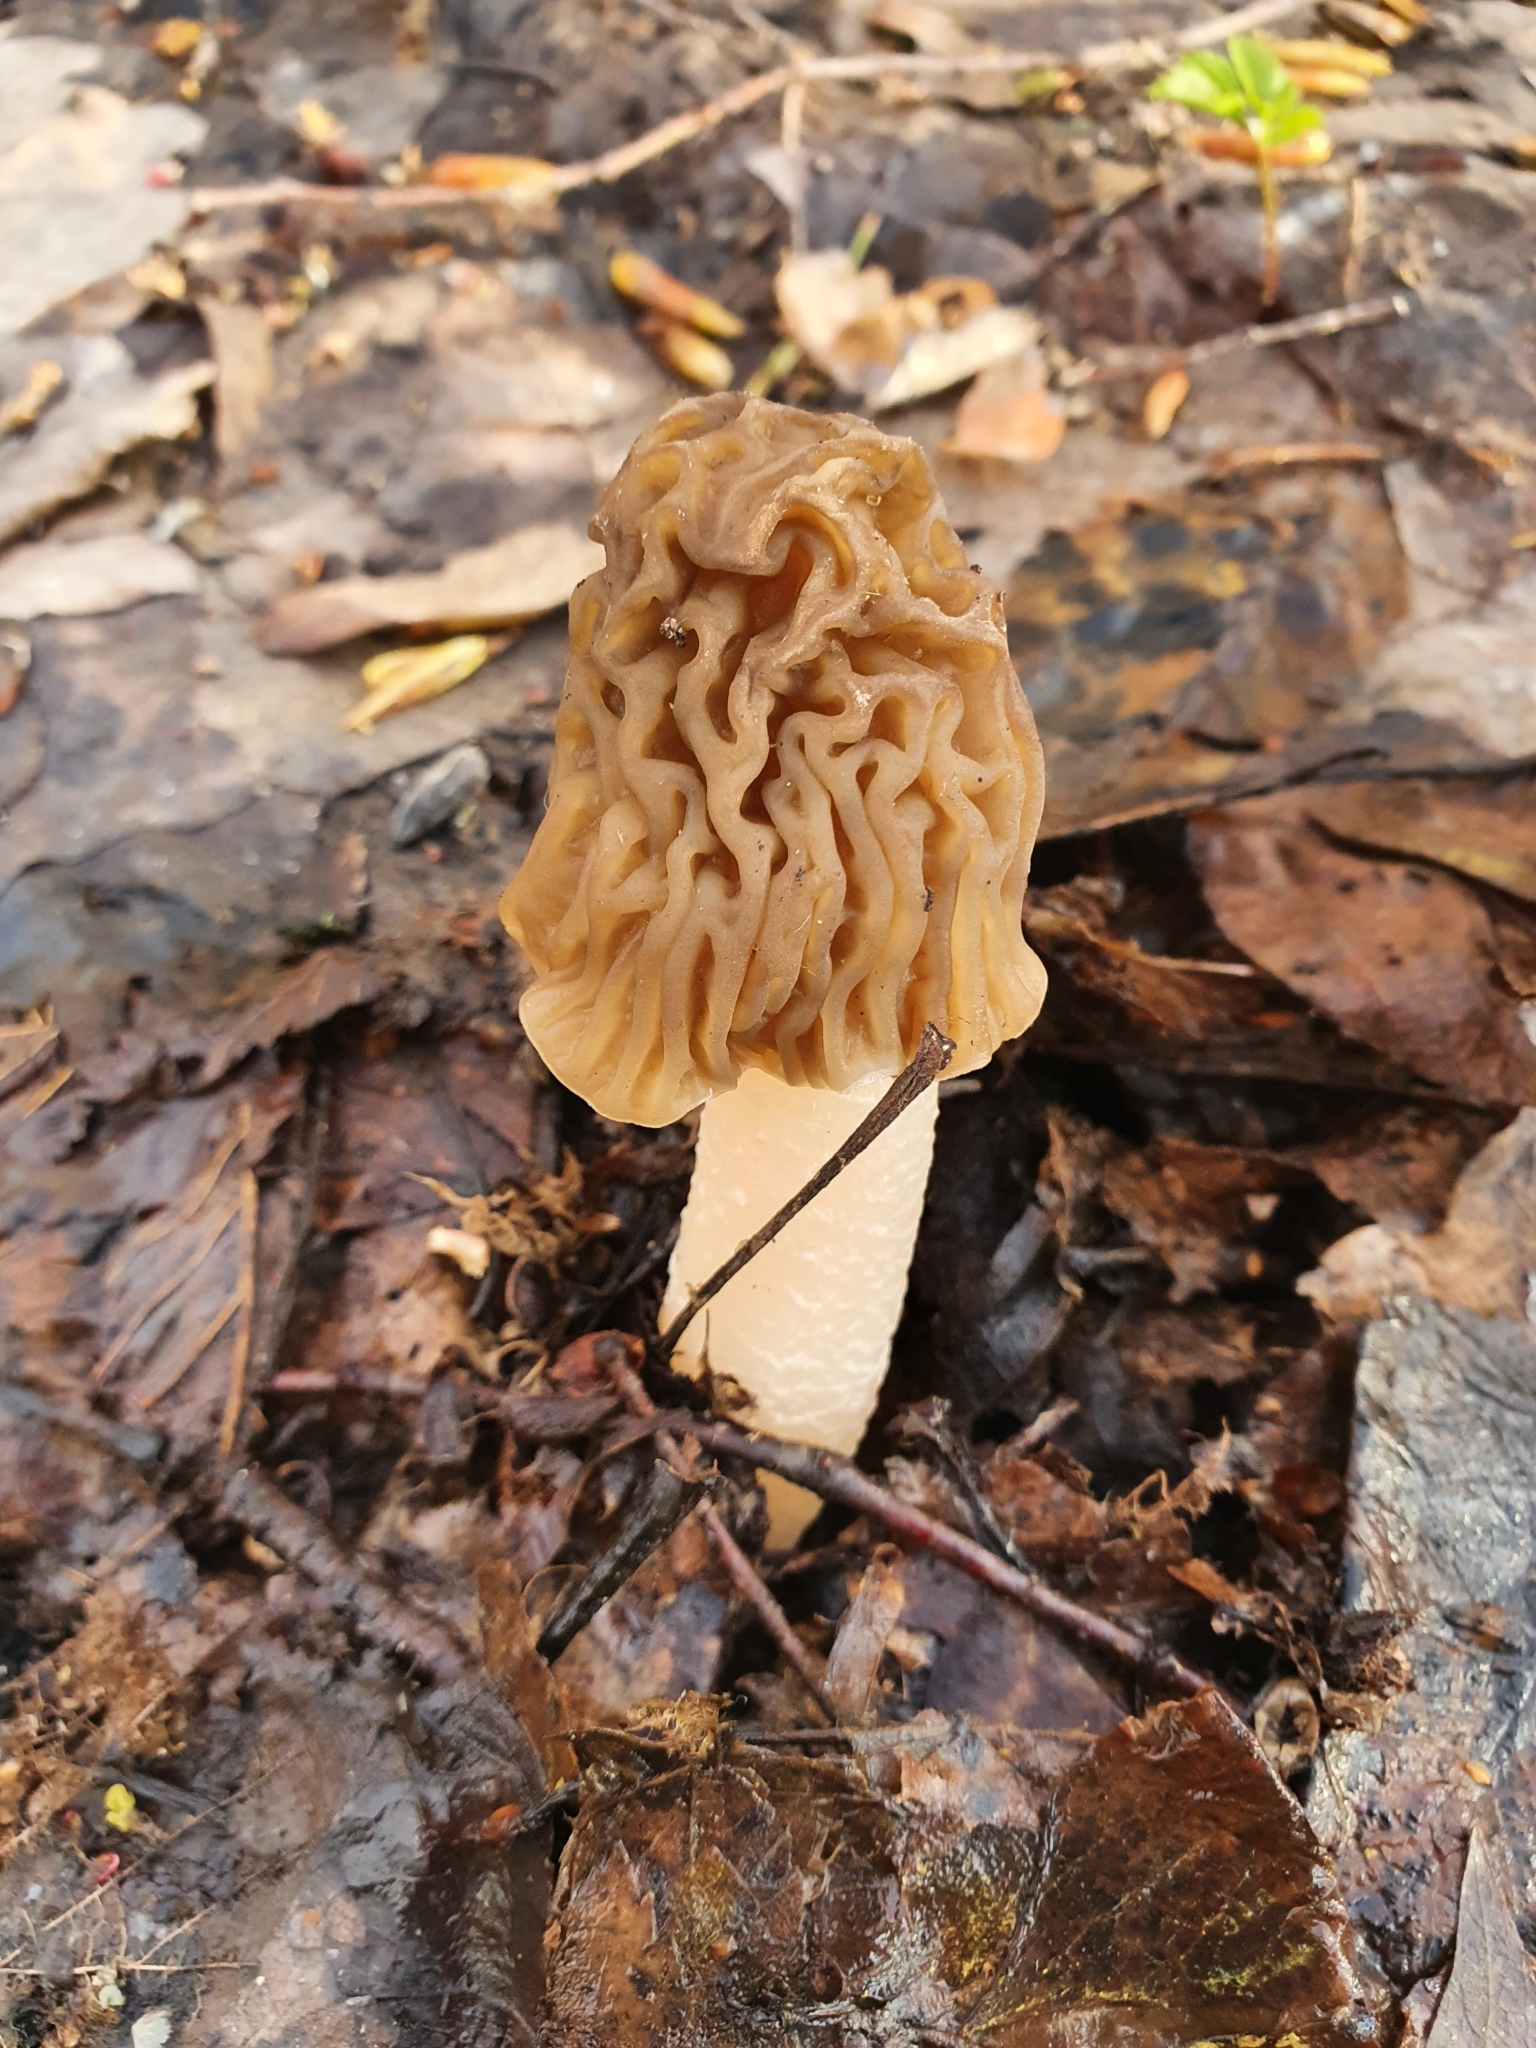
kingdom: Fungi
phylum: Ascomycota
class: Pezizomycetes
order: Pezizales
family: Morchellaceae
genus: Verpa
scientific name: Verpa bohemica
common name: Wrinkled thimble morel
